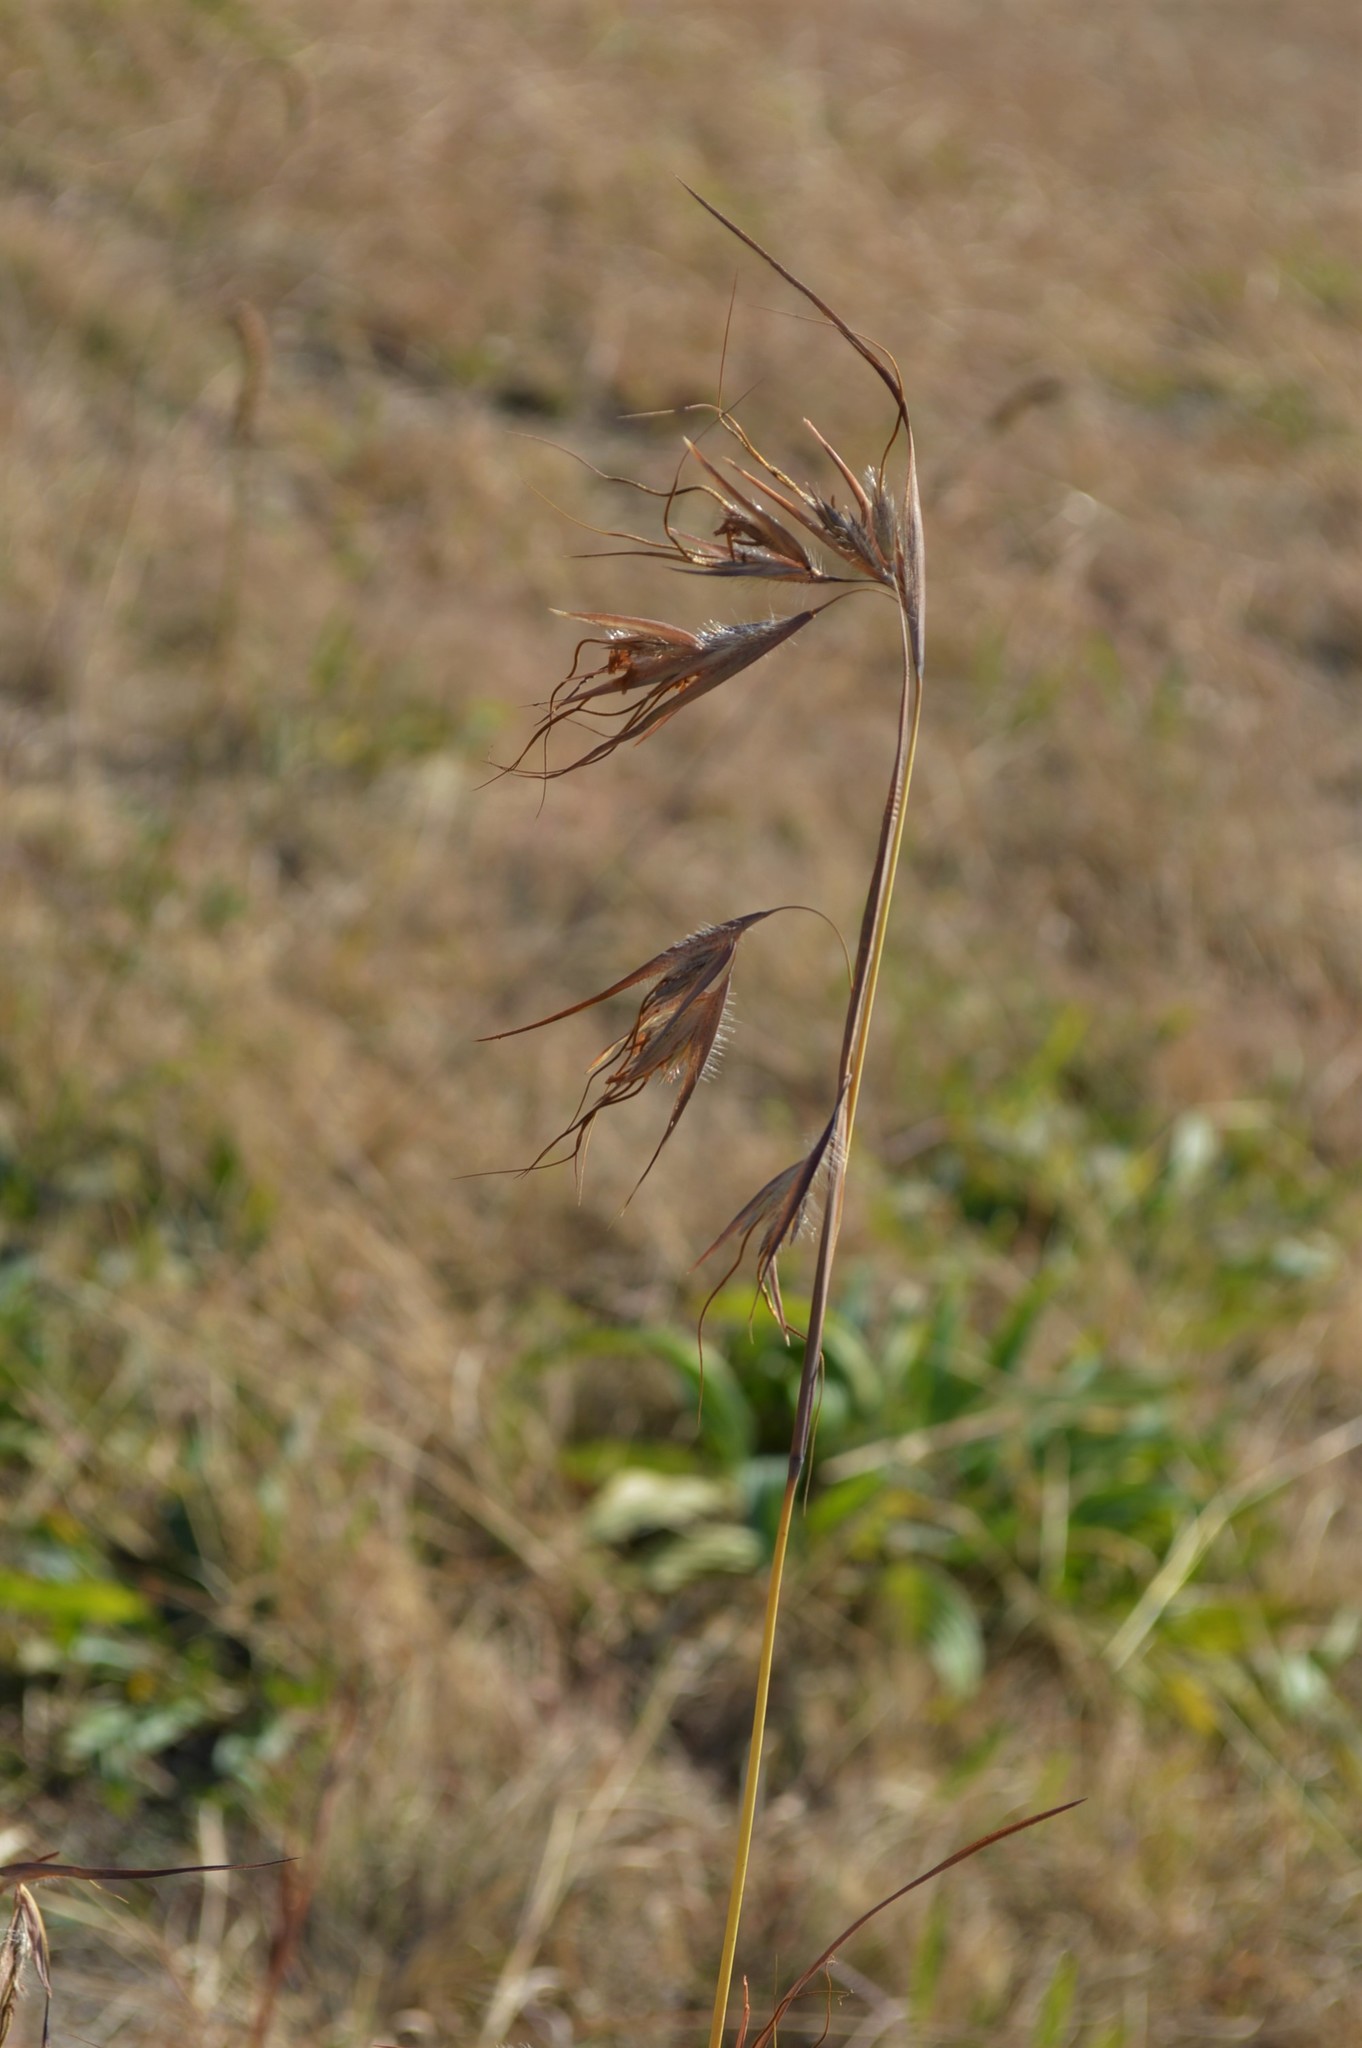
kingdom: Plantae
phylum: Tracheophyta
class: Liliopsida
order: Poales
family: Poaceae
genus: Themeda
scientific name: Themeda triandra
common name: Kangaroo grass
